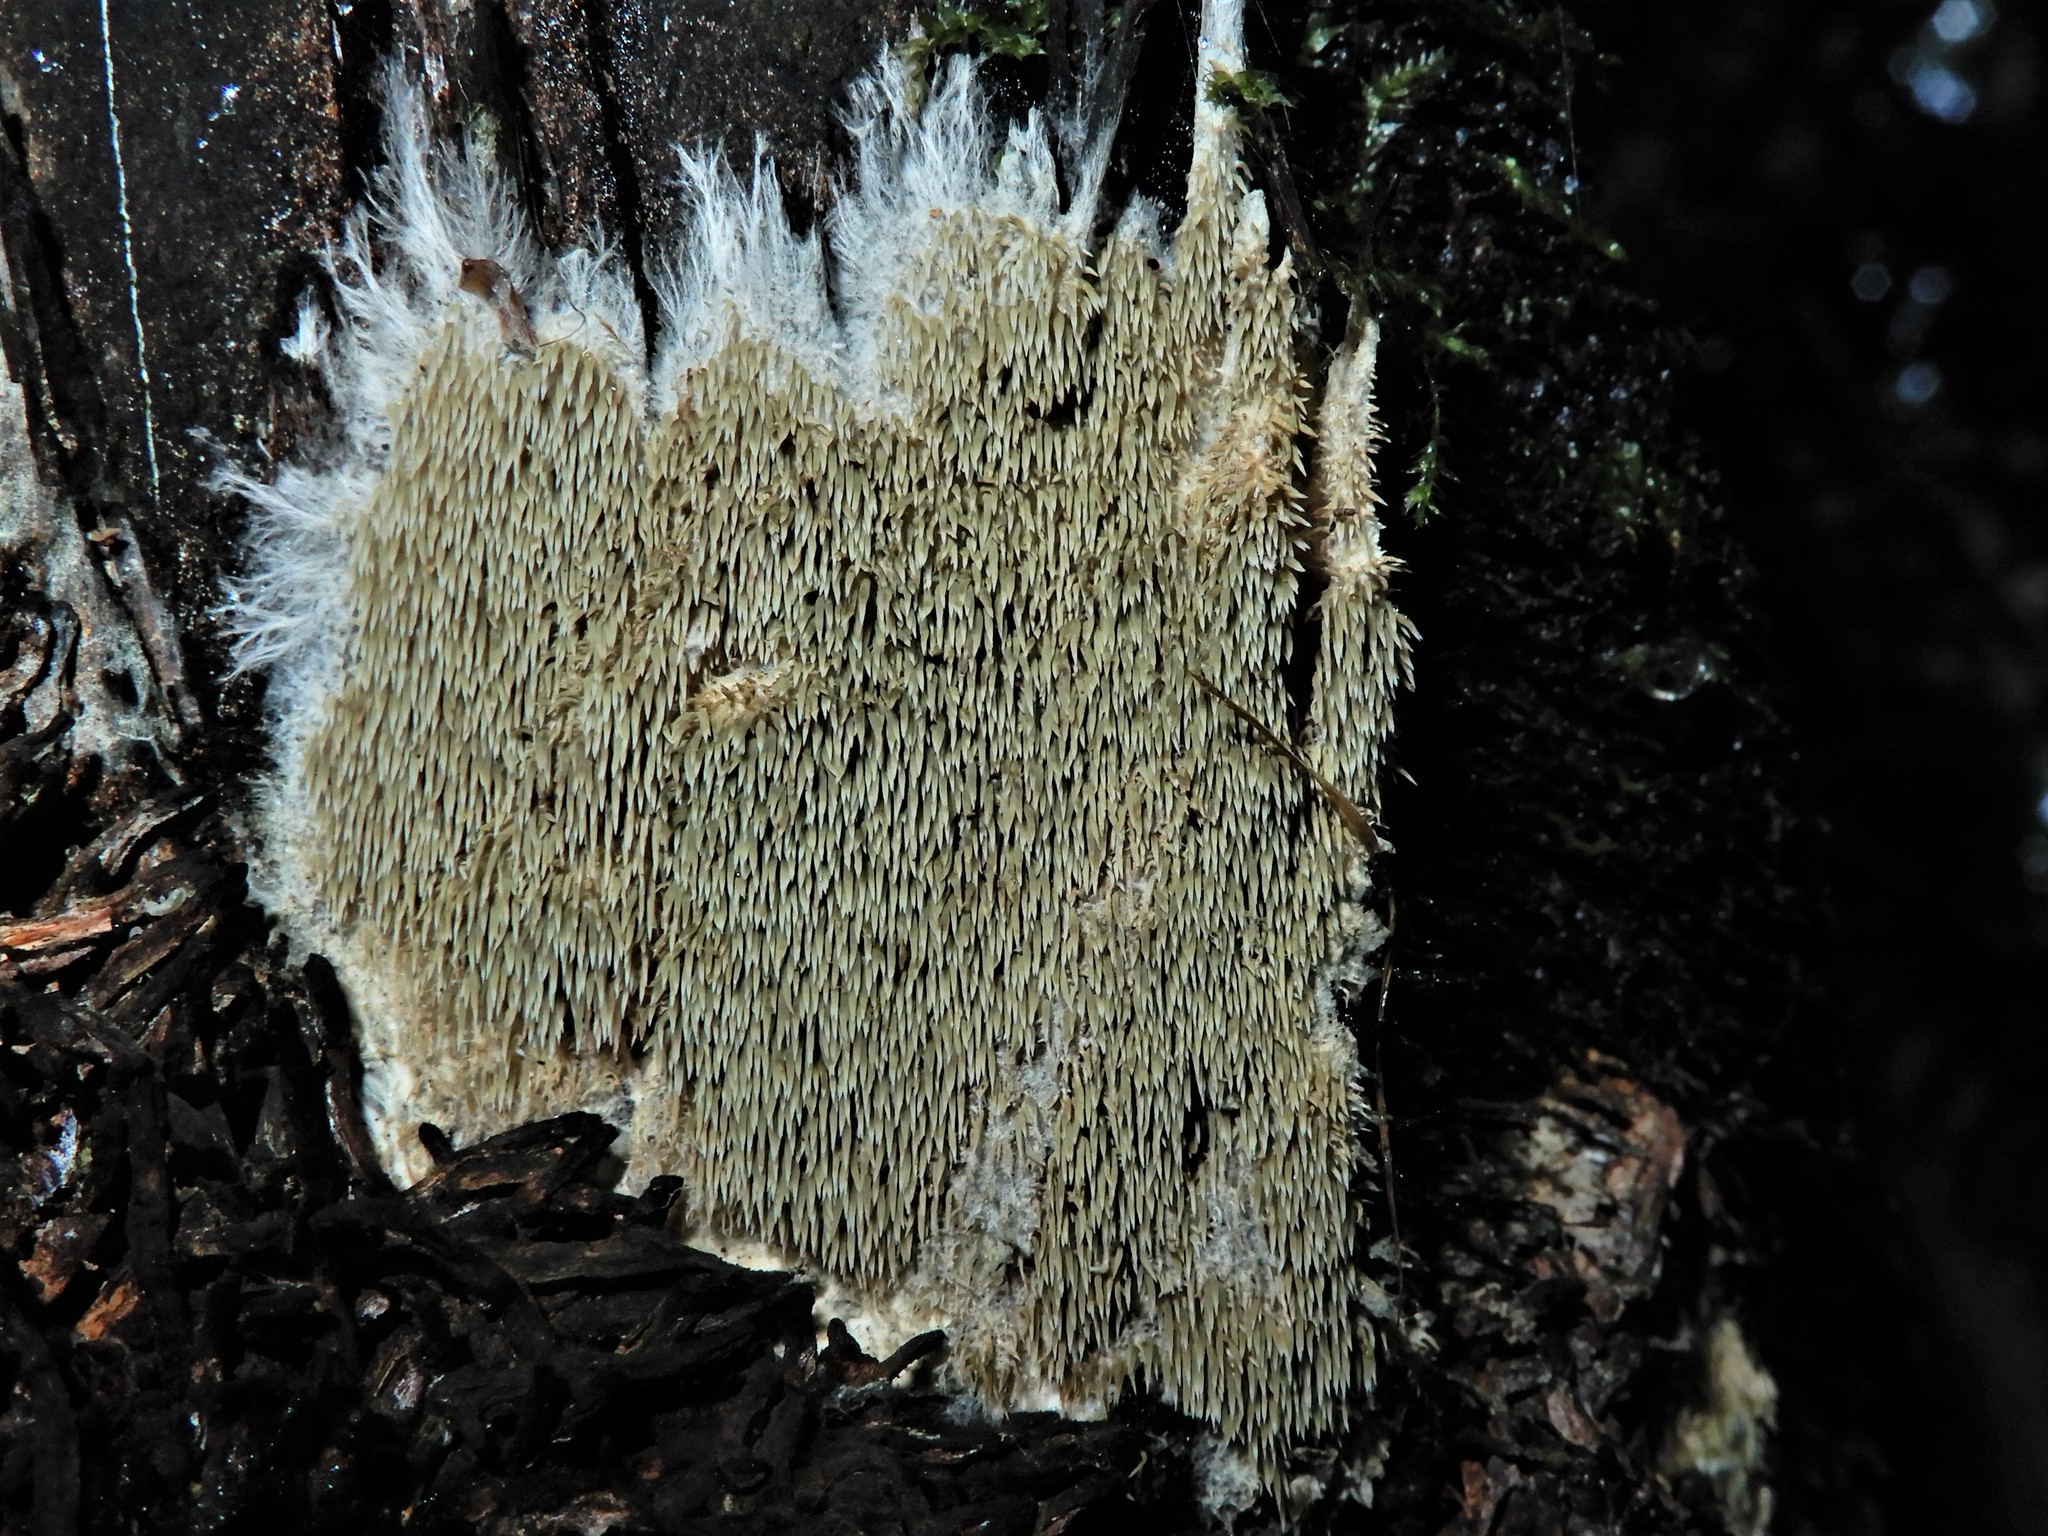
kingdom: Fungi
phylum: Basidiomycota
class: Agaricomycetes
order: Gomphales
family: Lentariaceae
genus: Kavinia
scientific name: Kavinia alboviridis
